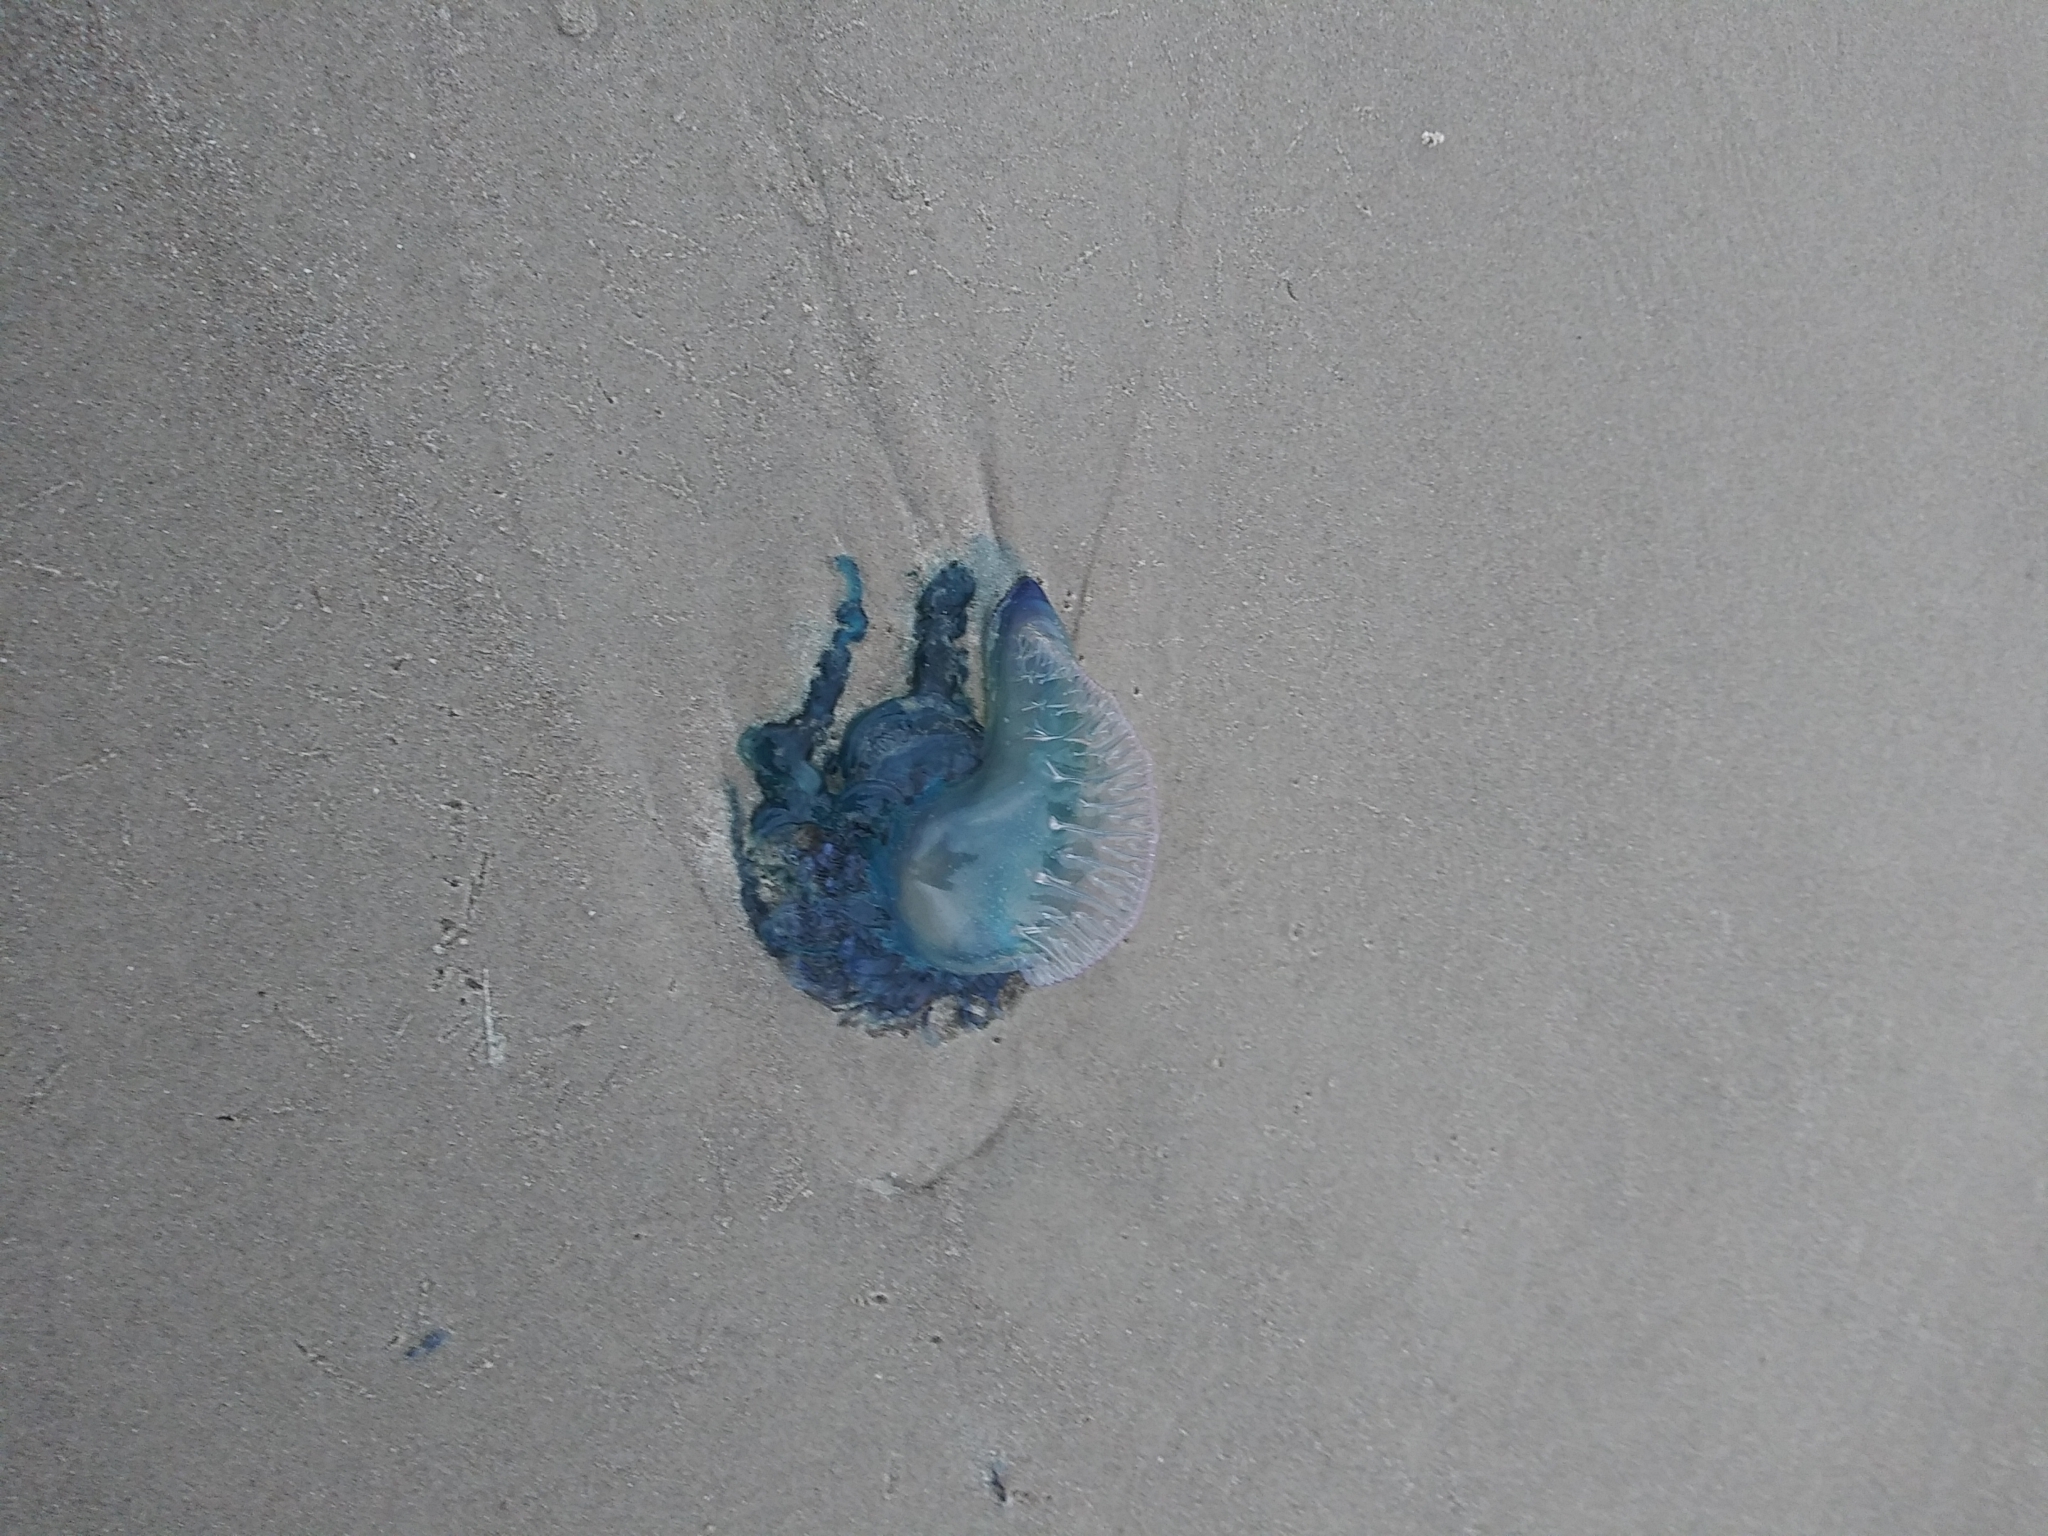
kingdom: Animalia
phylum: Cnidaria
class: Hydrozoa
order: Siphonophorae
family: Physaliidae
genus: Physalia
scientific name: Physalia physalis
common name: Portuguese man-of-war
